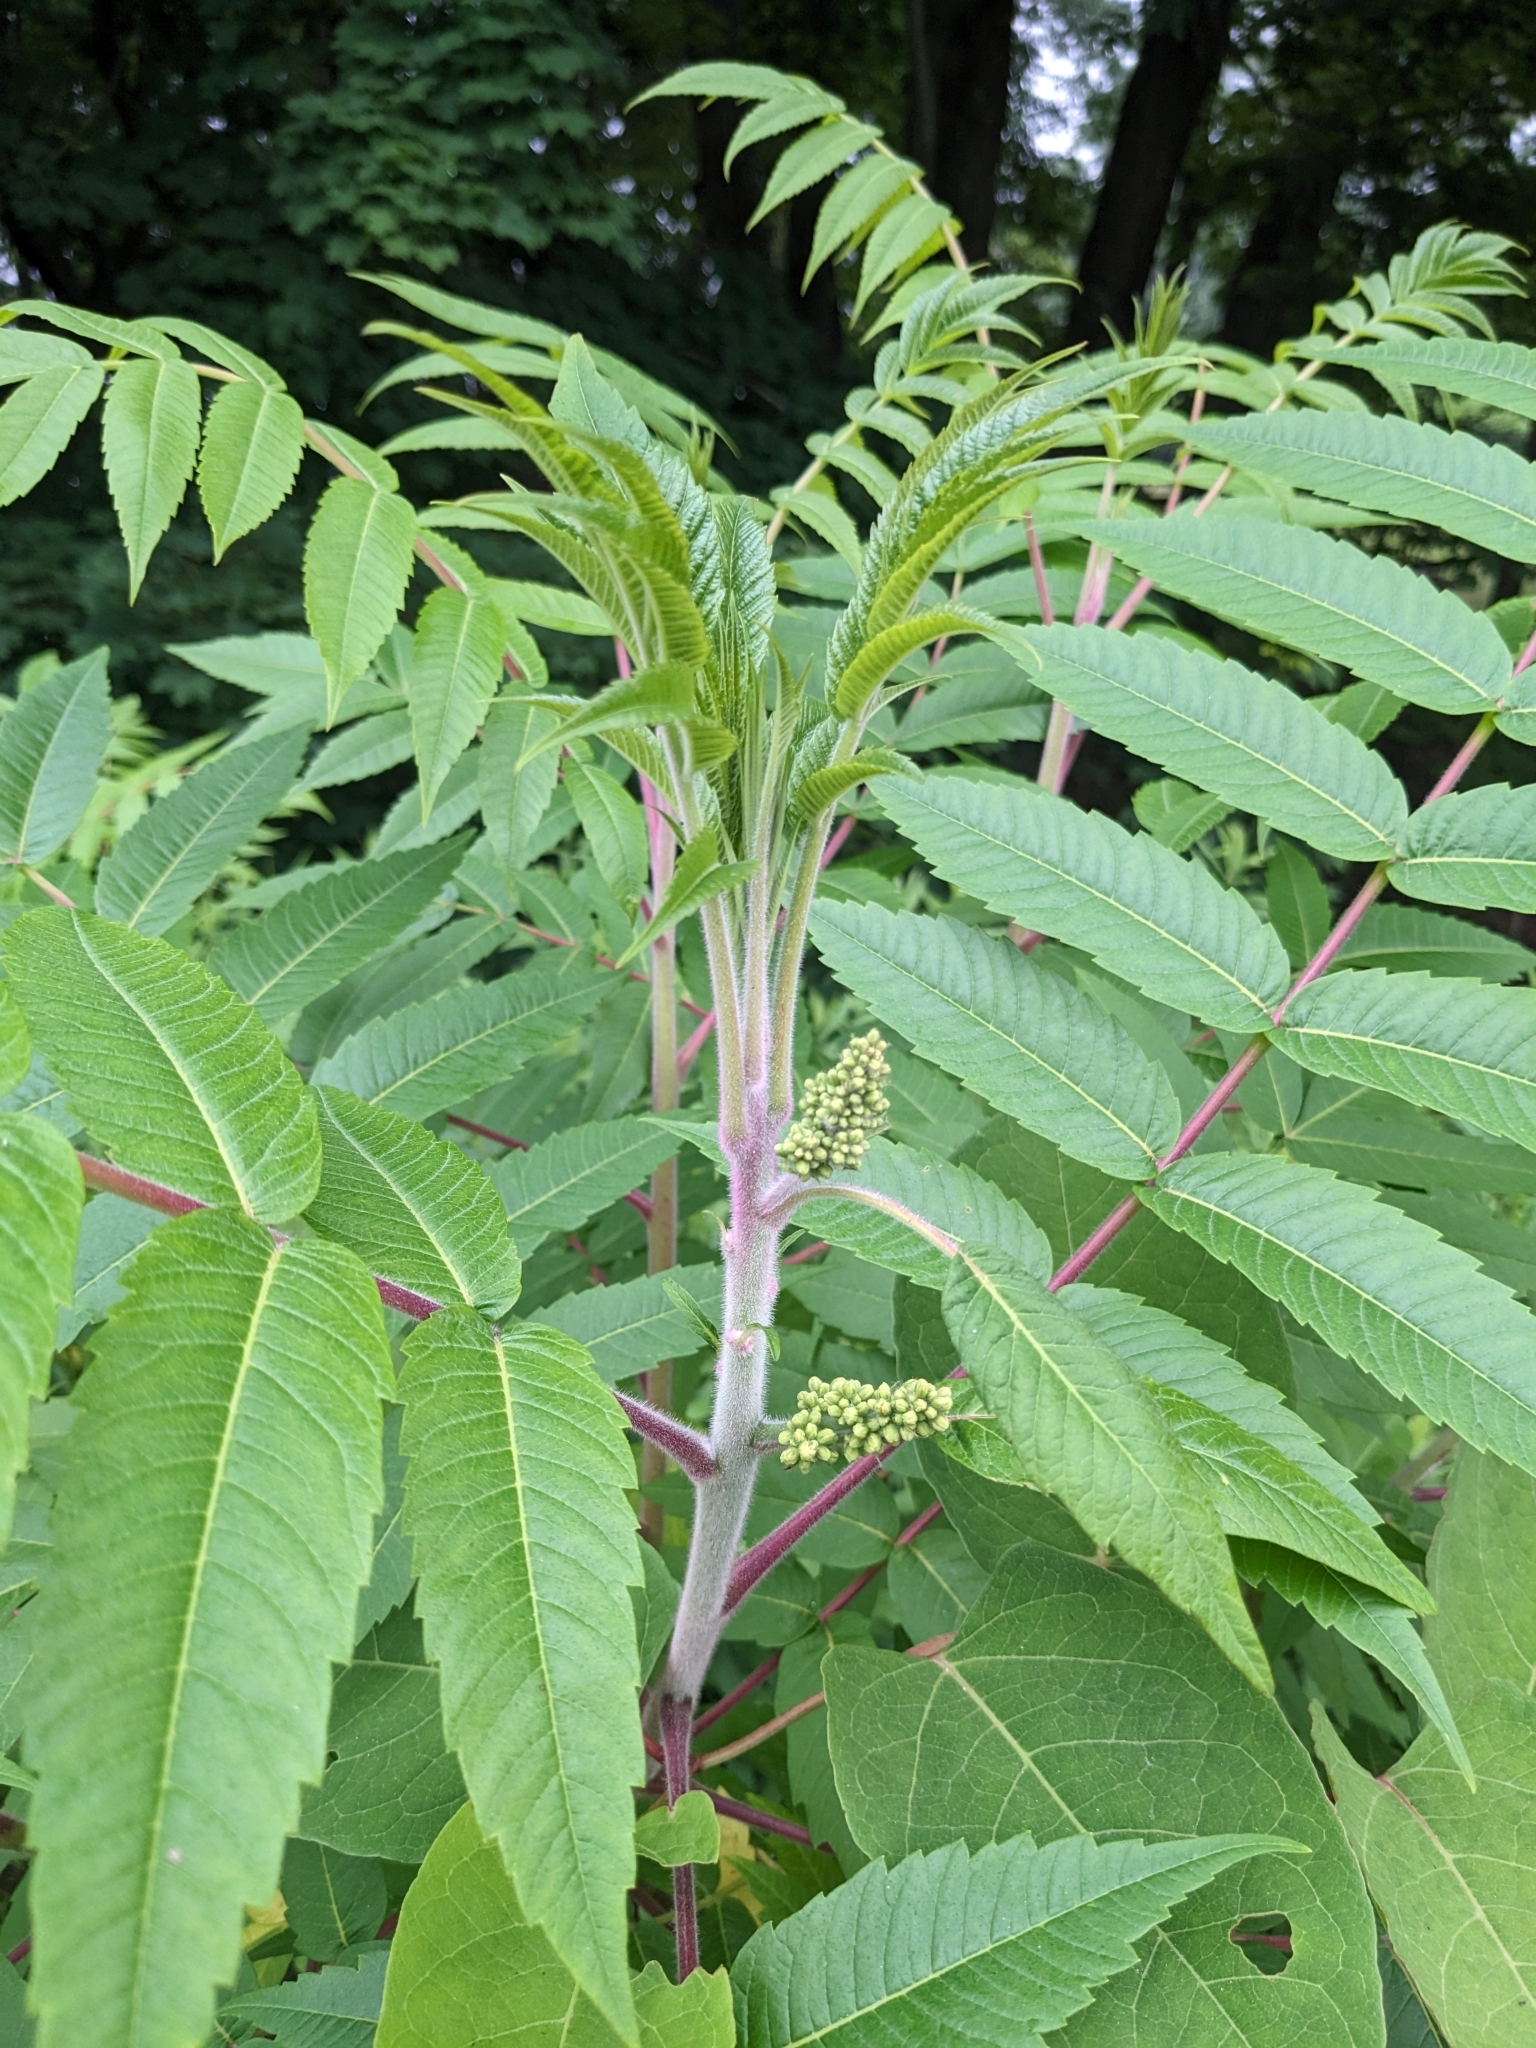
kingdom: Plantae
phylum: Tracheophyta
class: Magnoliopsida
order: Sapindales
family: Anacardiaceae
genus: Rhus
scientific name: Rhus typhina
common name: Staghorn sumac
